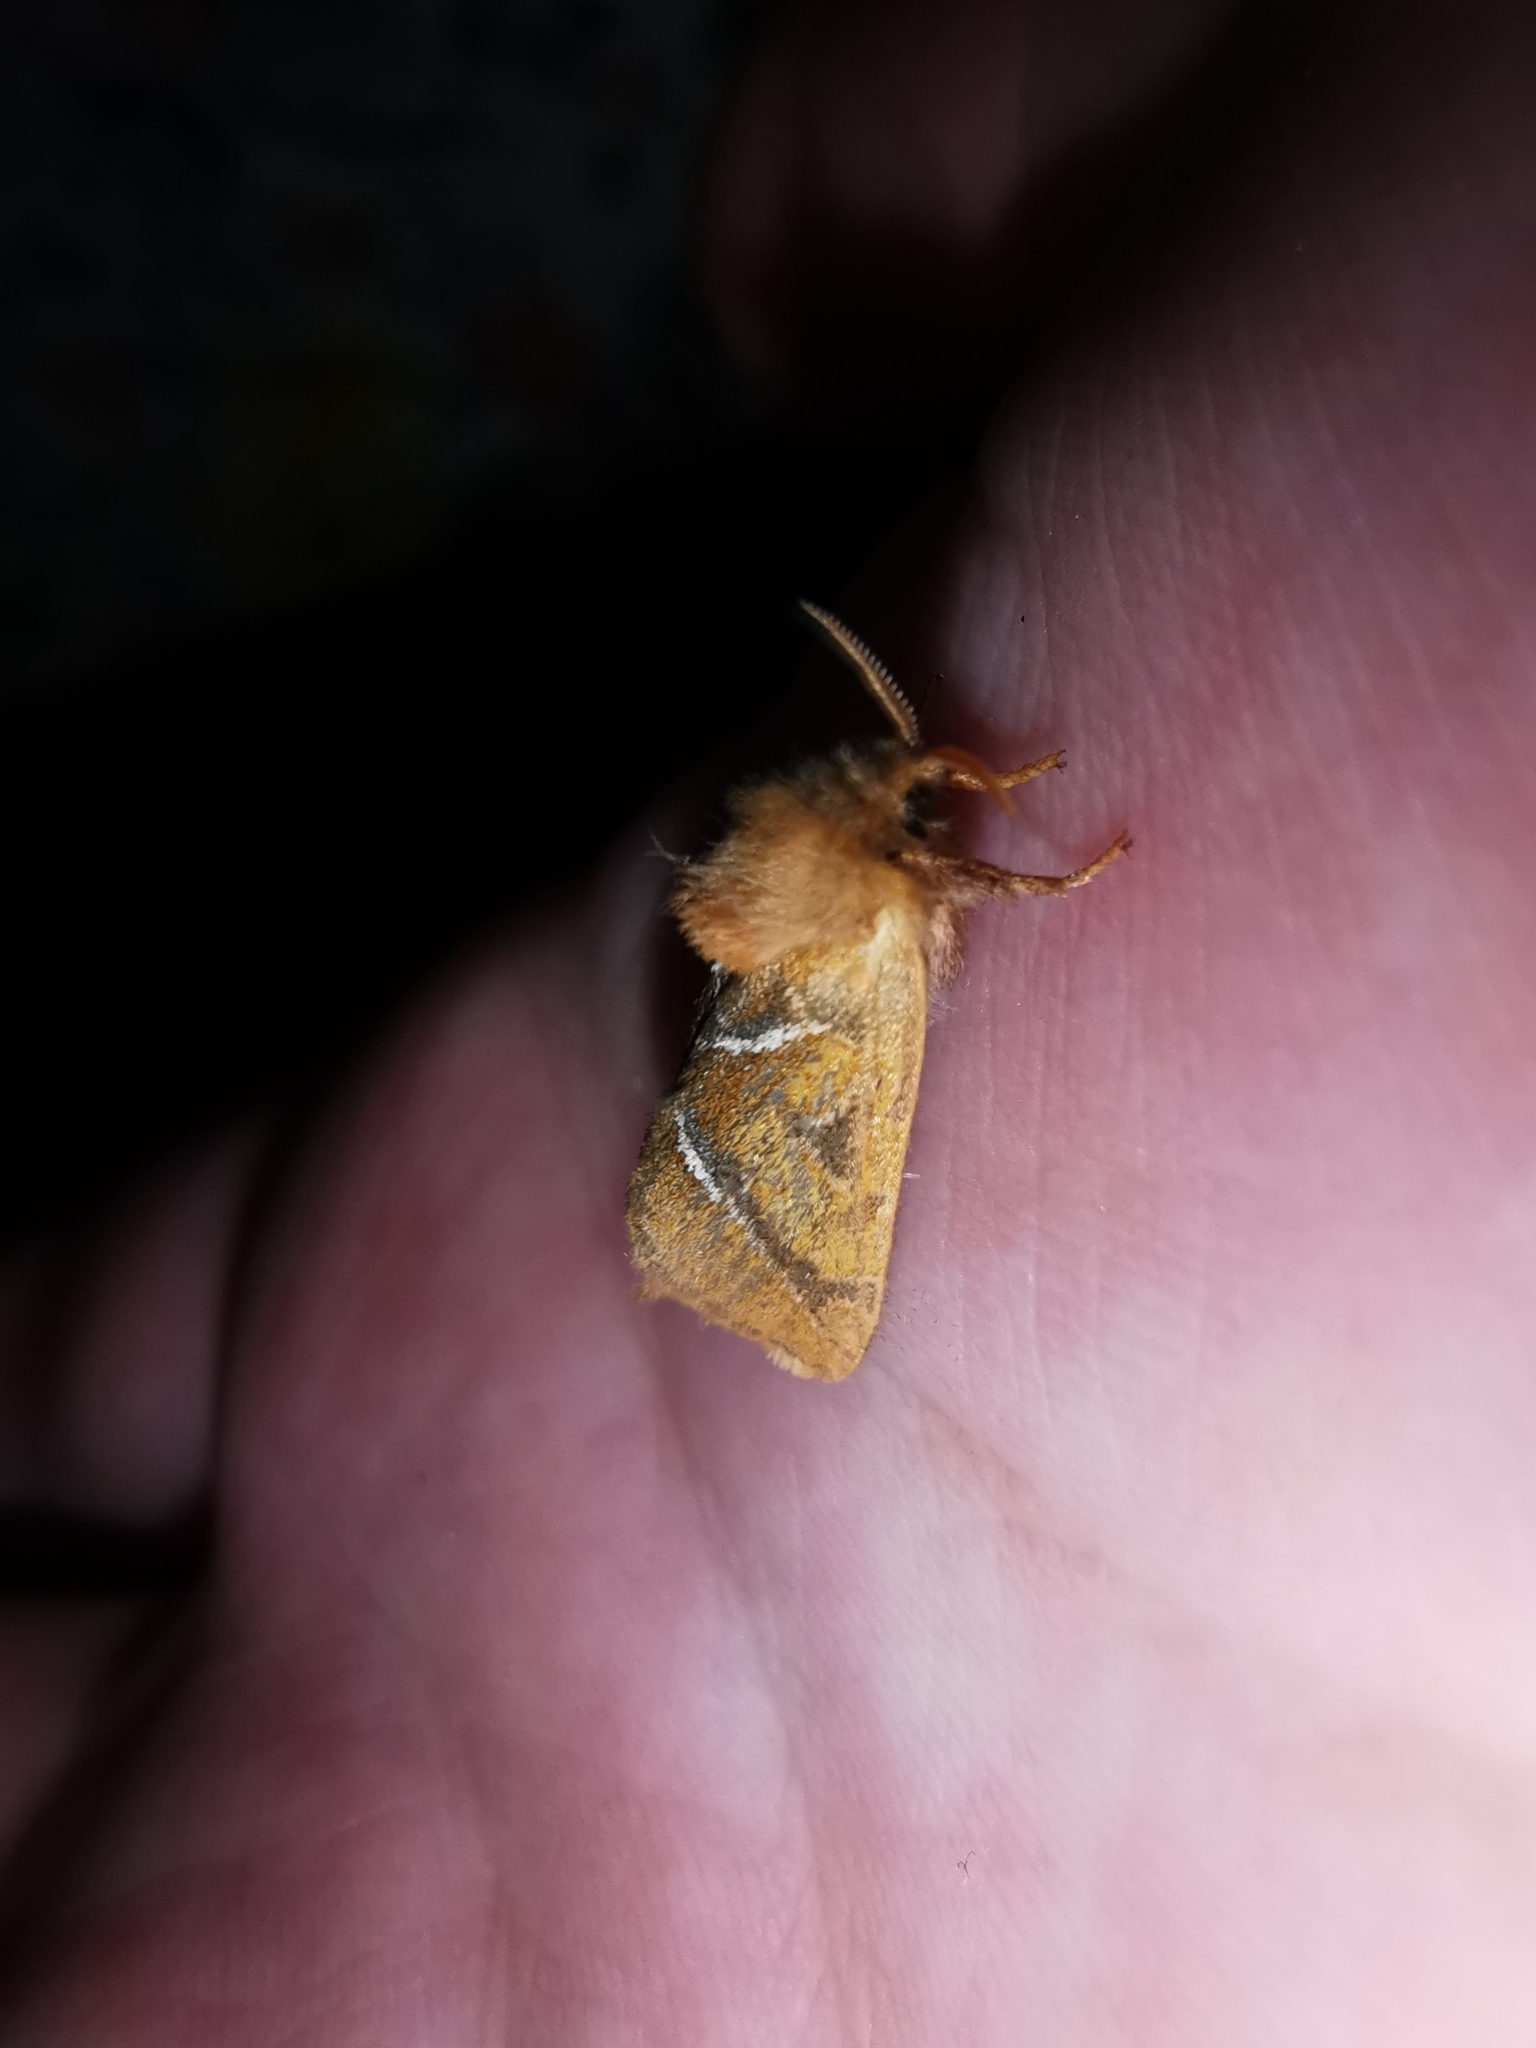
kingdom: Animalia
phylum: Arthropoda
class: Insecta
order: Lepidoptera
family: Hepialidae
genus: Triodia
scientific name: Triodia sylvina
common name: Orange swift
